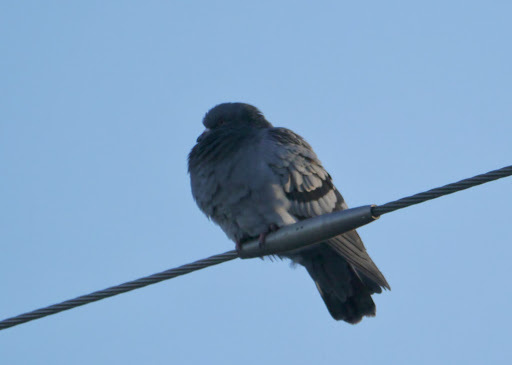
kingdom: Animalia
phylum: Chordata
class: Aves
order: Columbiformes
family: Columbidae
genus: Columba
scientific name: Columba livia
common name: Rock pigeon
